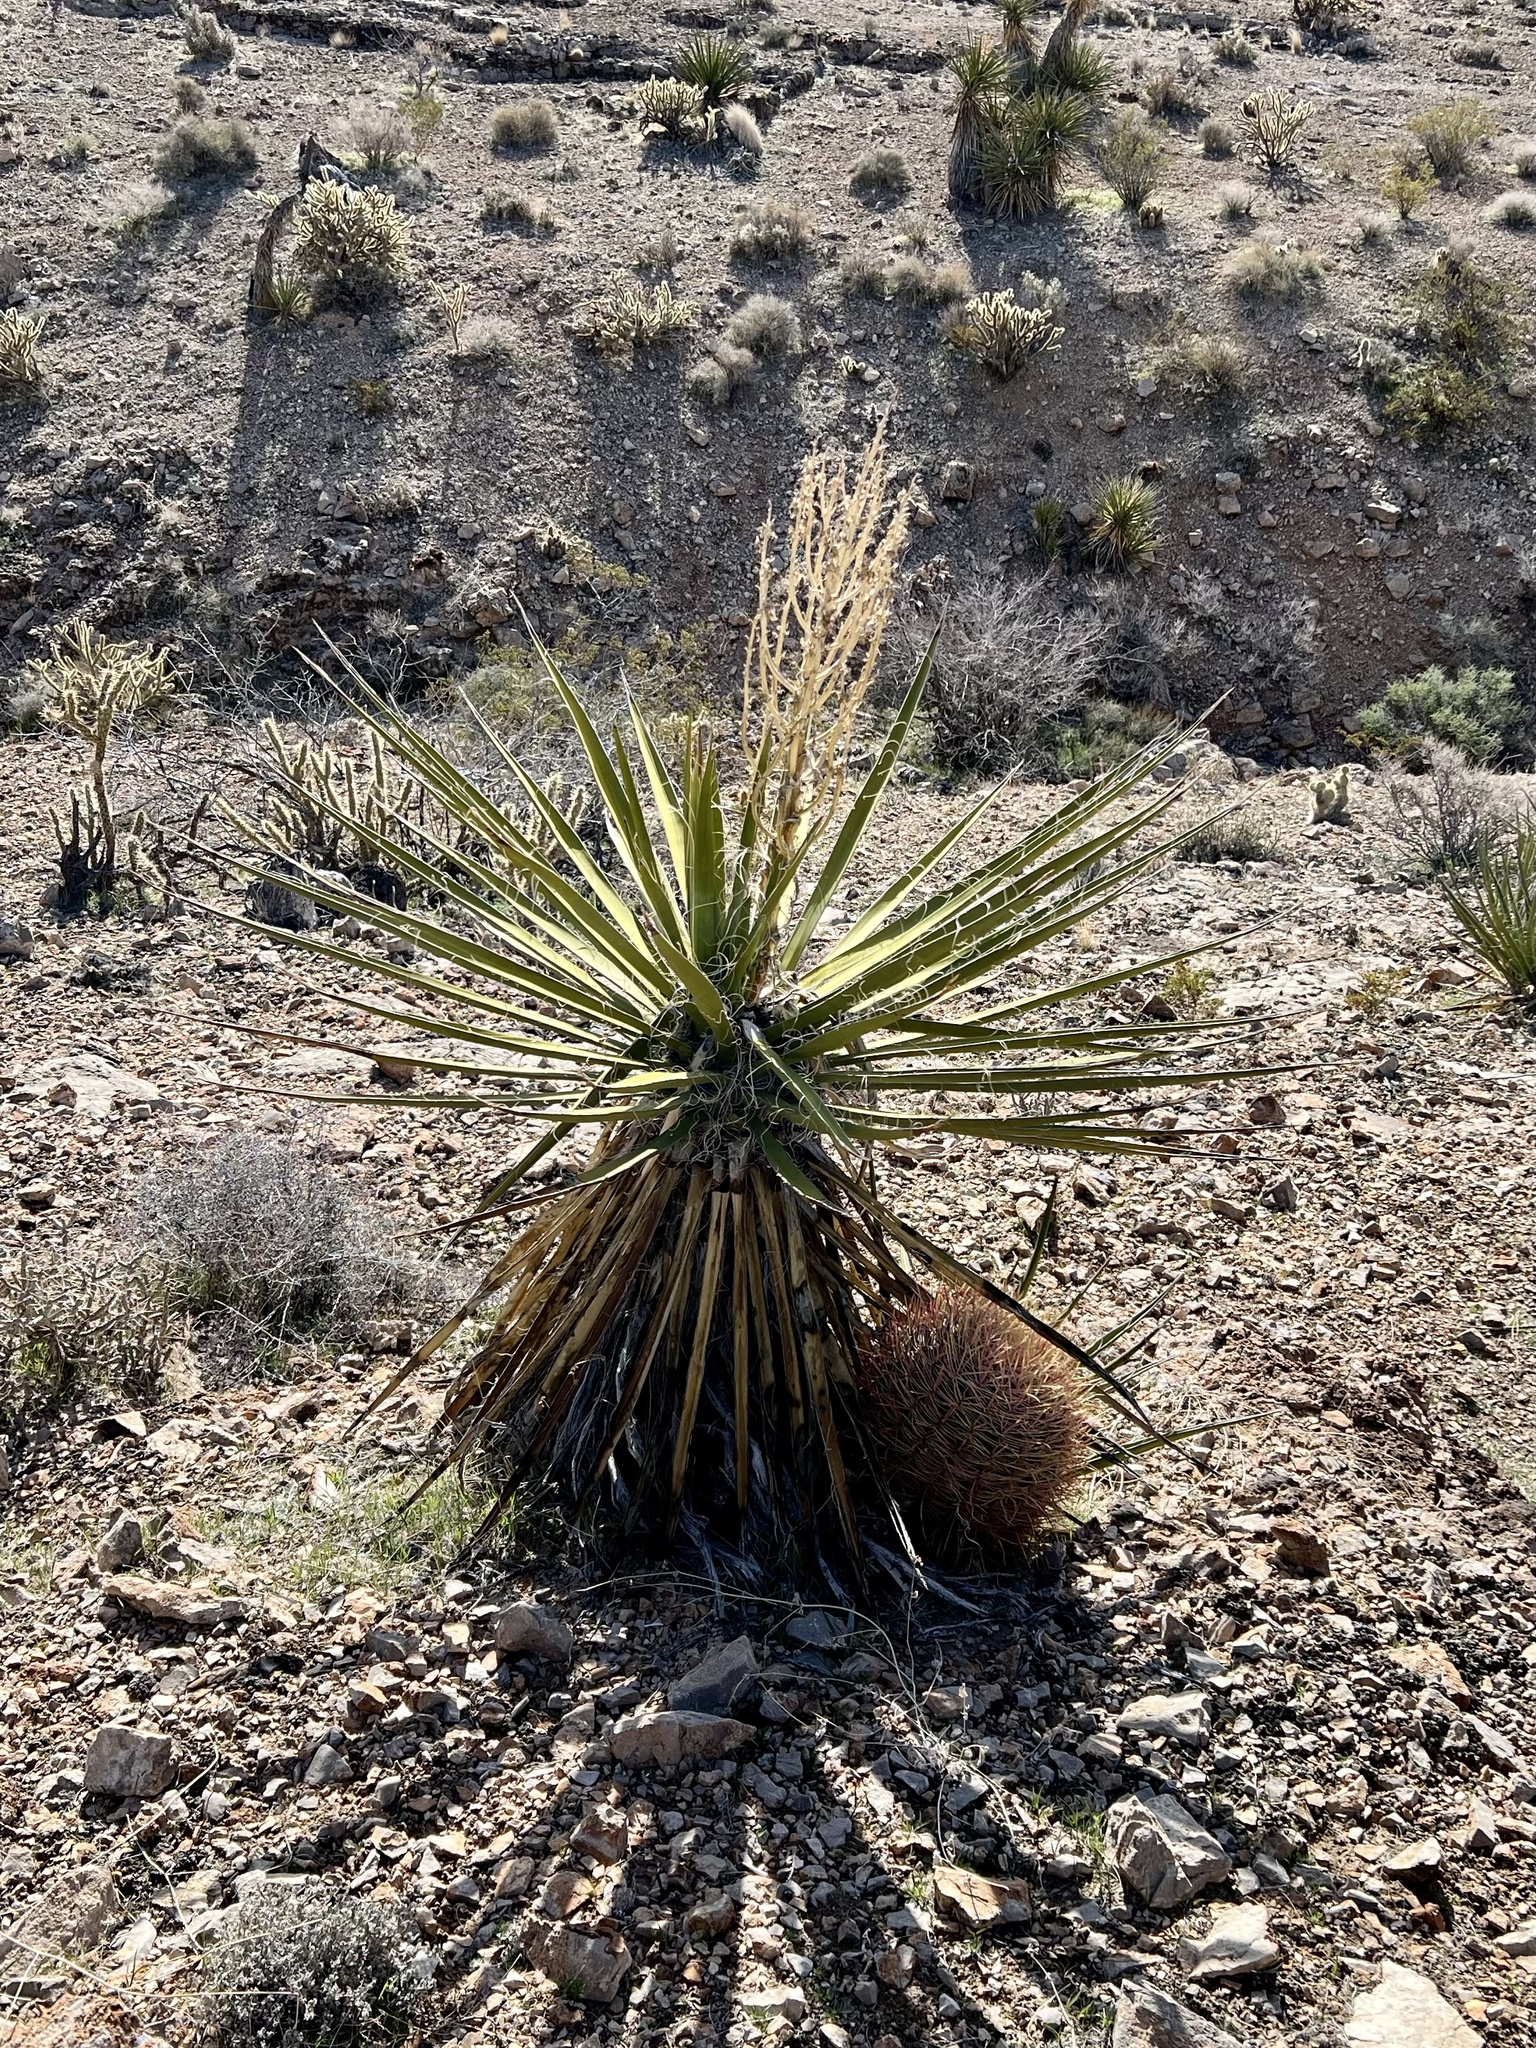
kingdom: Plantae
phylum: Tracheophyta
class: Liliopsida
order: Asparagales
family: Asparagaceae
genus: Yucca
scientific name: Yucca schidigera
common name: Mojave yucca
